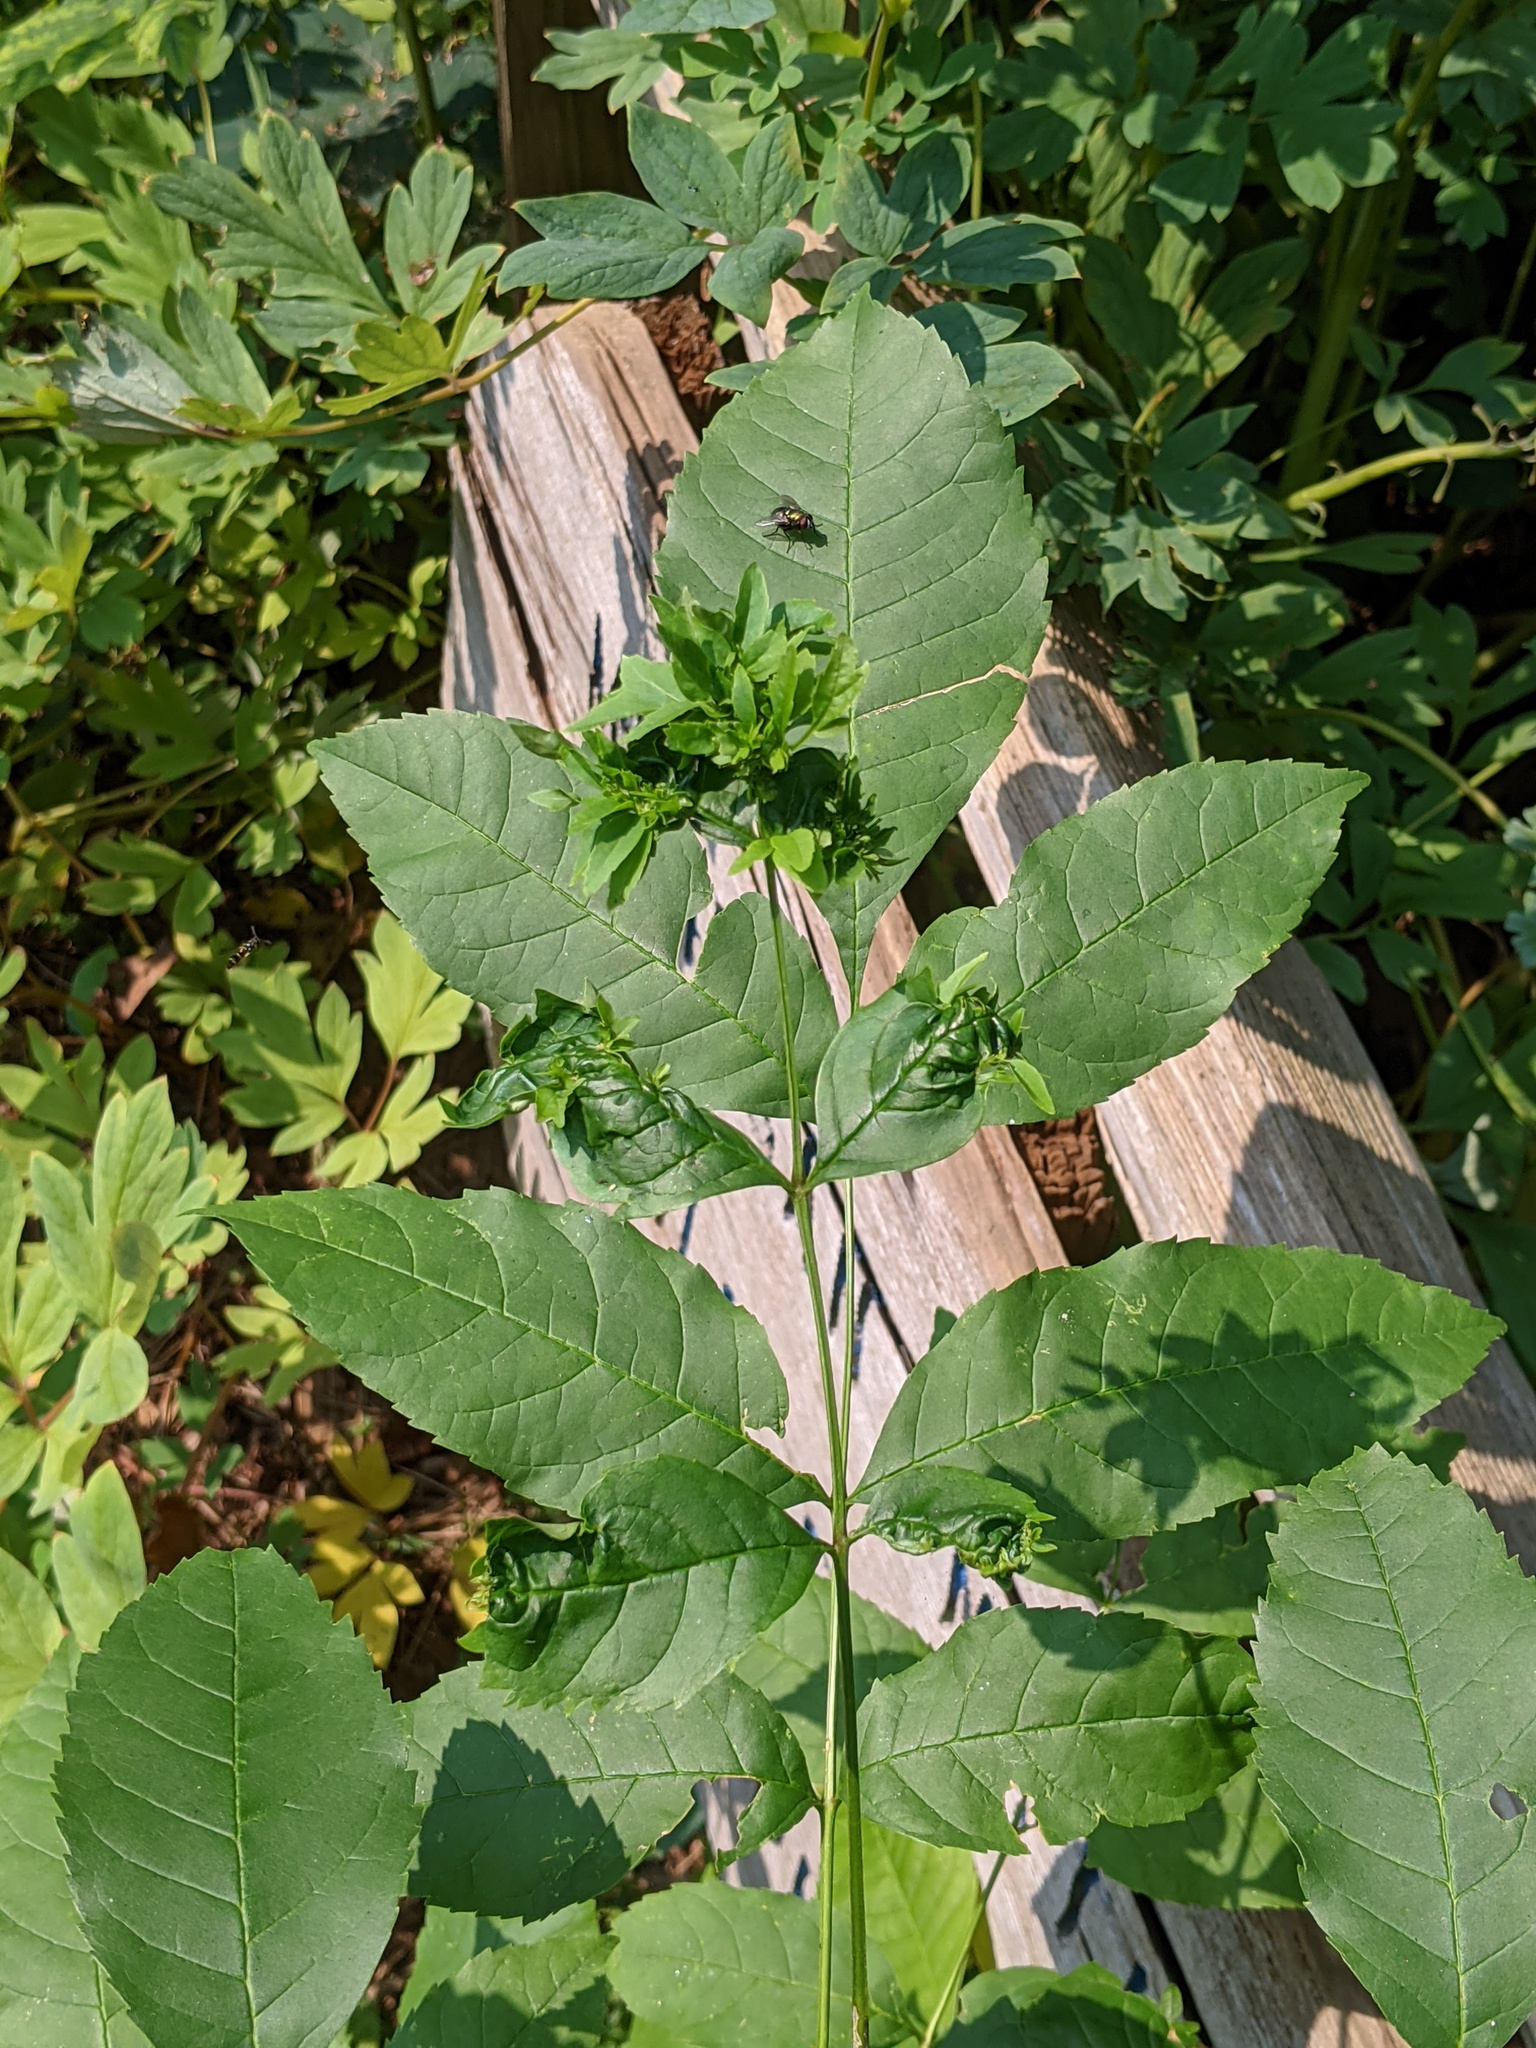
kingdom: Bacteria
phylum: Firmicutes
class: Bacilli
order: Acholeplasmatales
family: Acholeplasmataceae
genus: Phytoplasma
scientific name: Phytoplasma
